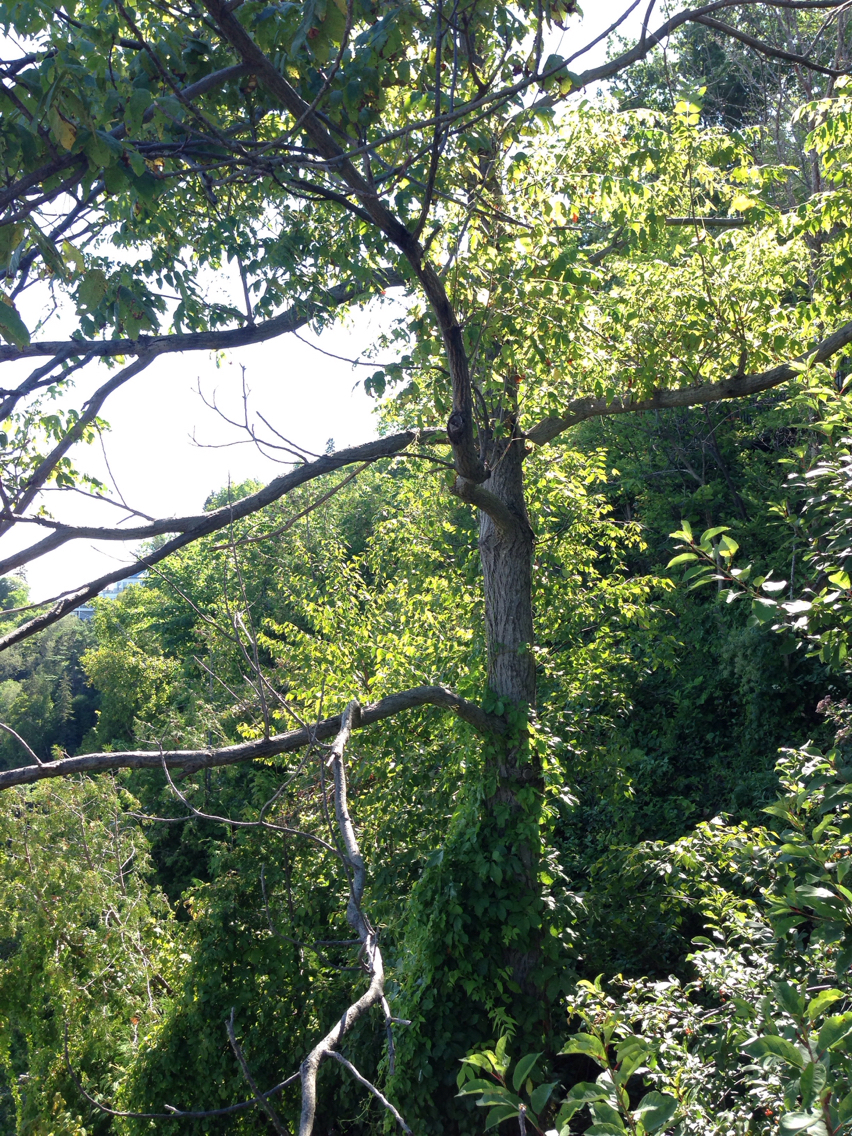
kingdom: Plantae
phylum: Tracheophyta
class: Magnoliopsida
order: Fagales
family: Juglandaceae
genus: Juglans
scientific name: Juglans cinerea
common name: Butternut
